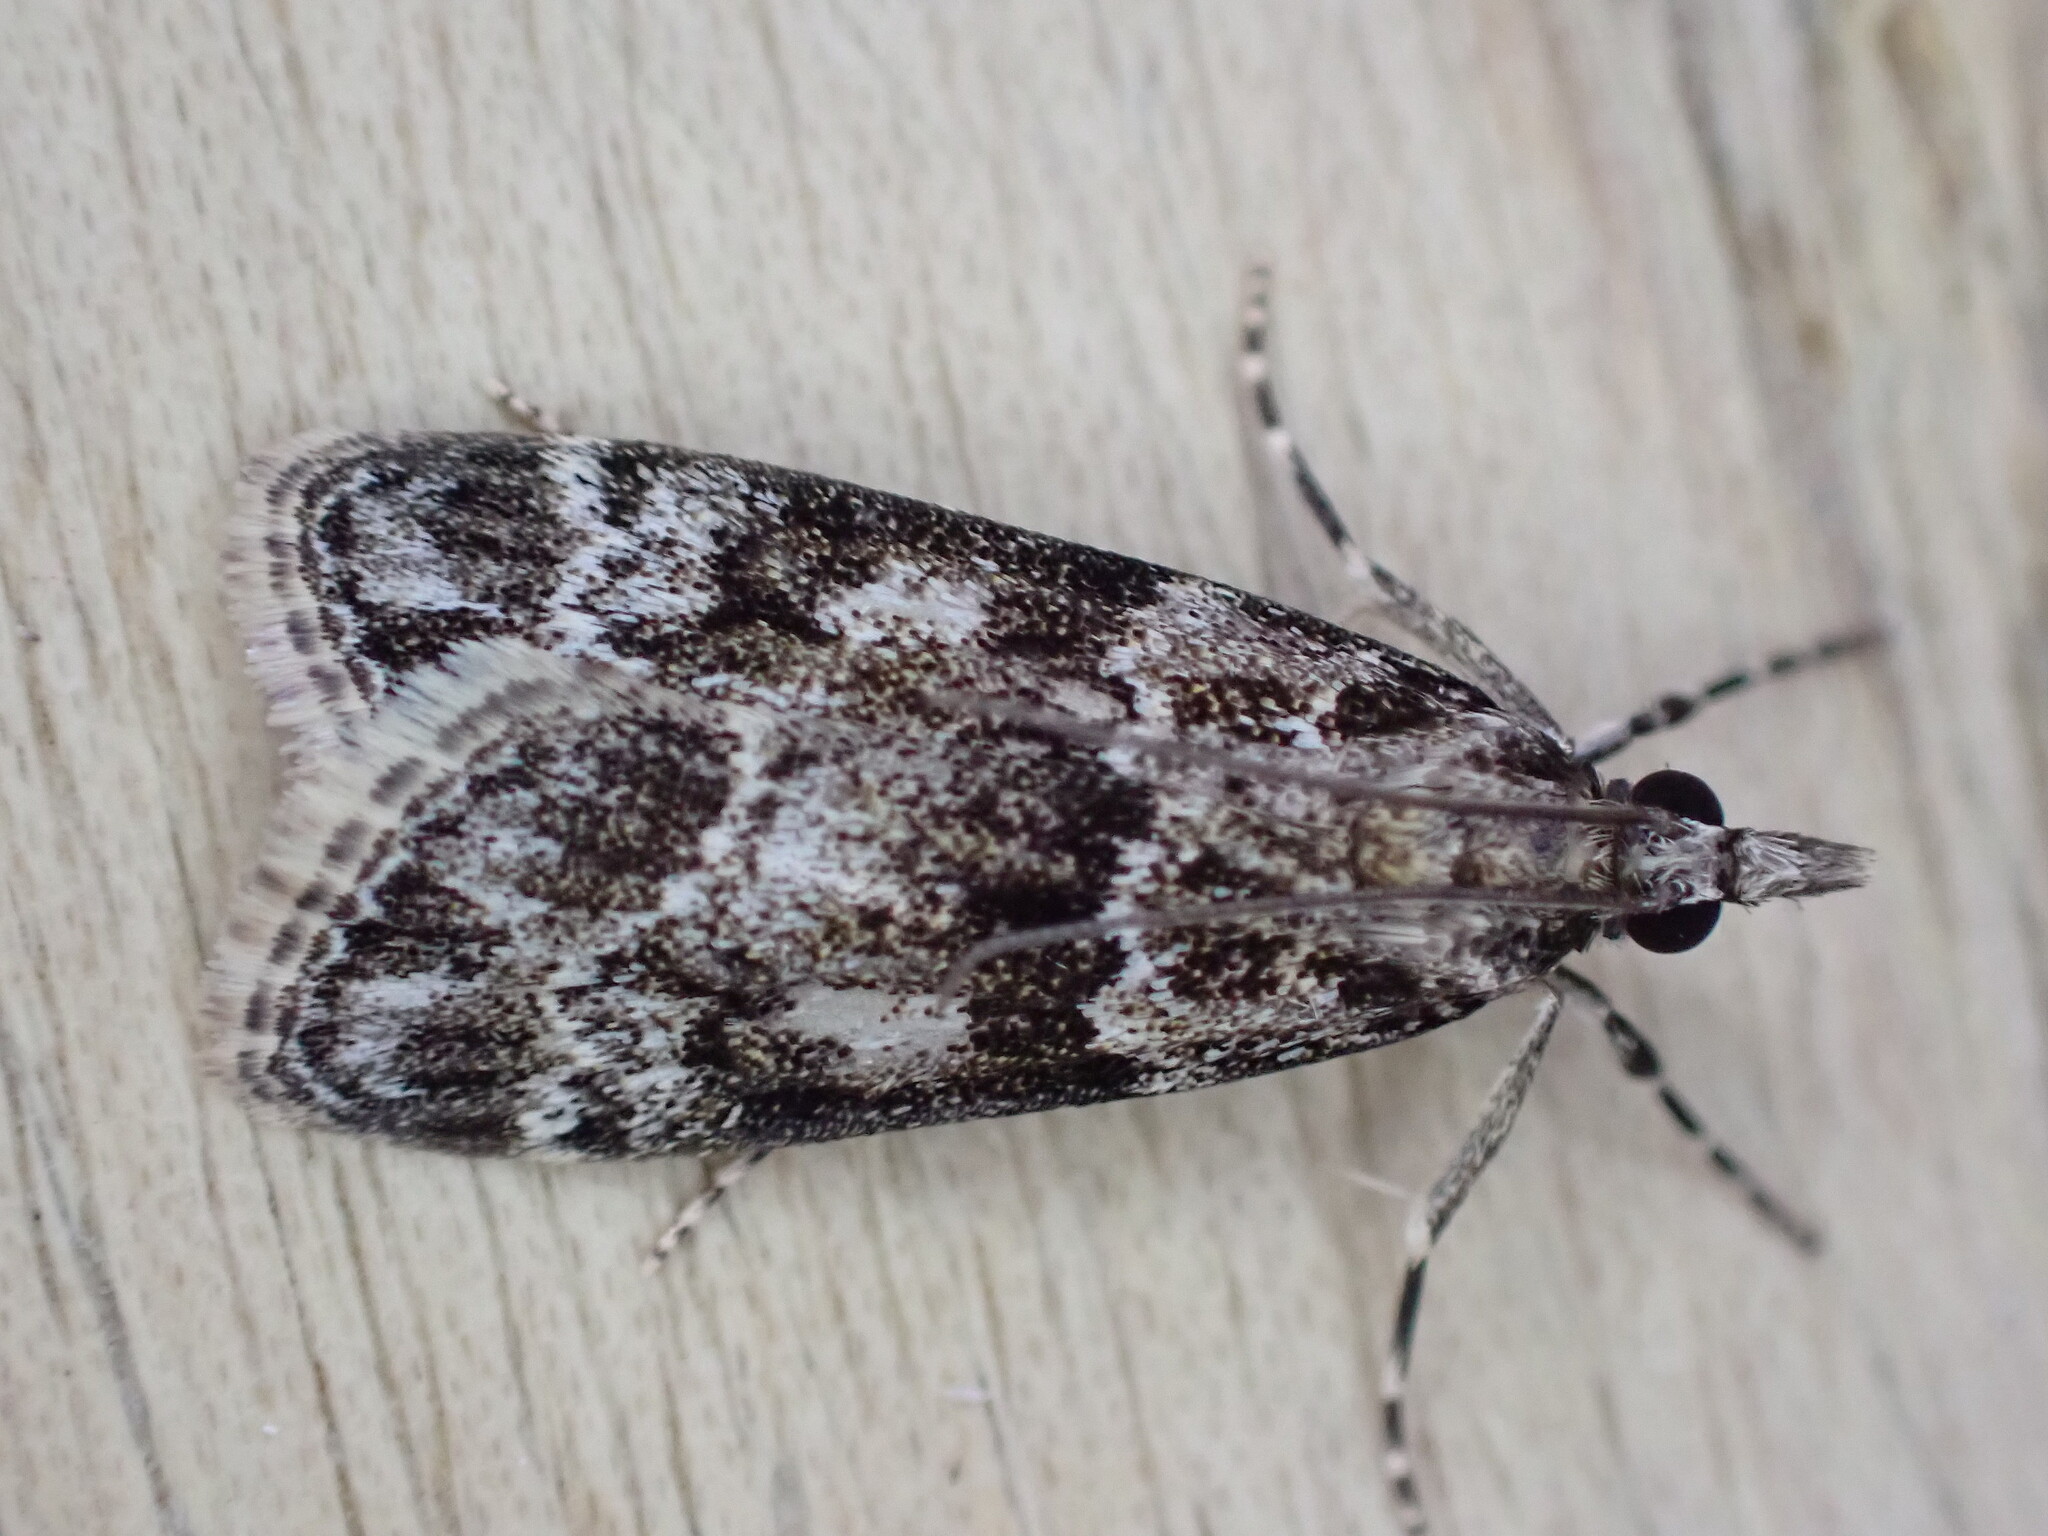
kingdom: Animalia
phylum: Arthropoda
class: Insecta
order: Lepidoptera
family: Crambidae
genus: Eudonia
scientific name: Eudonia mercurella
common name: Small grey
